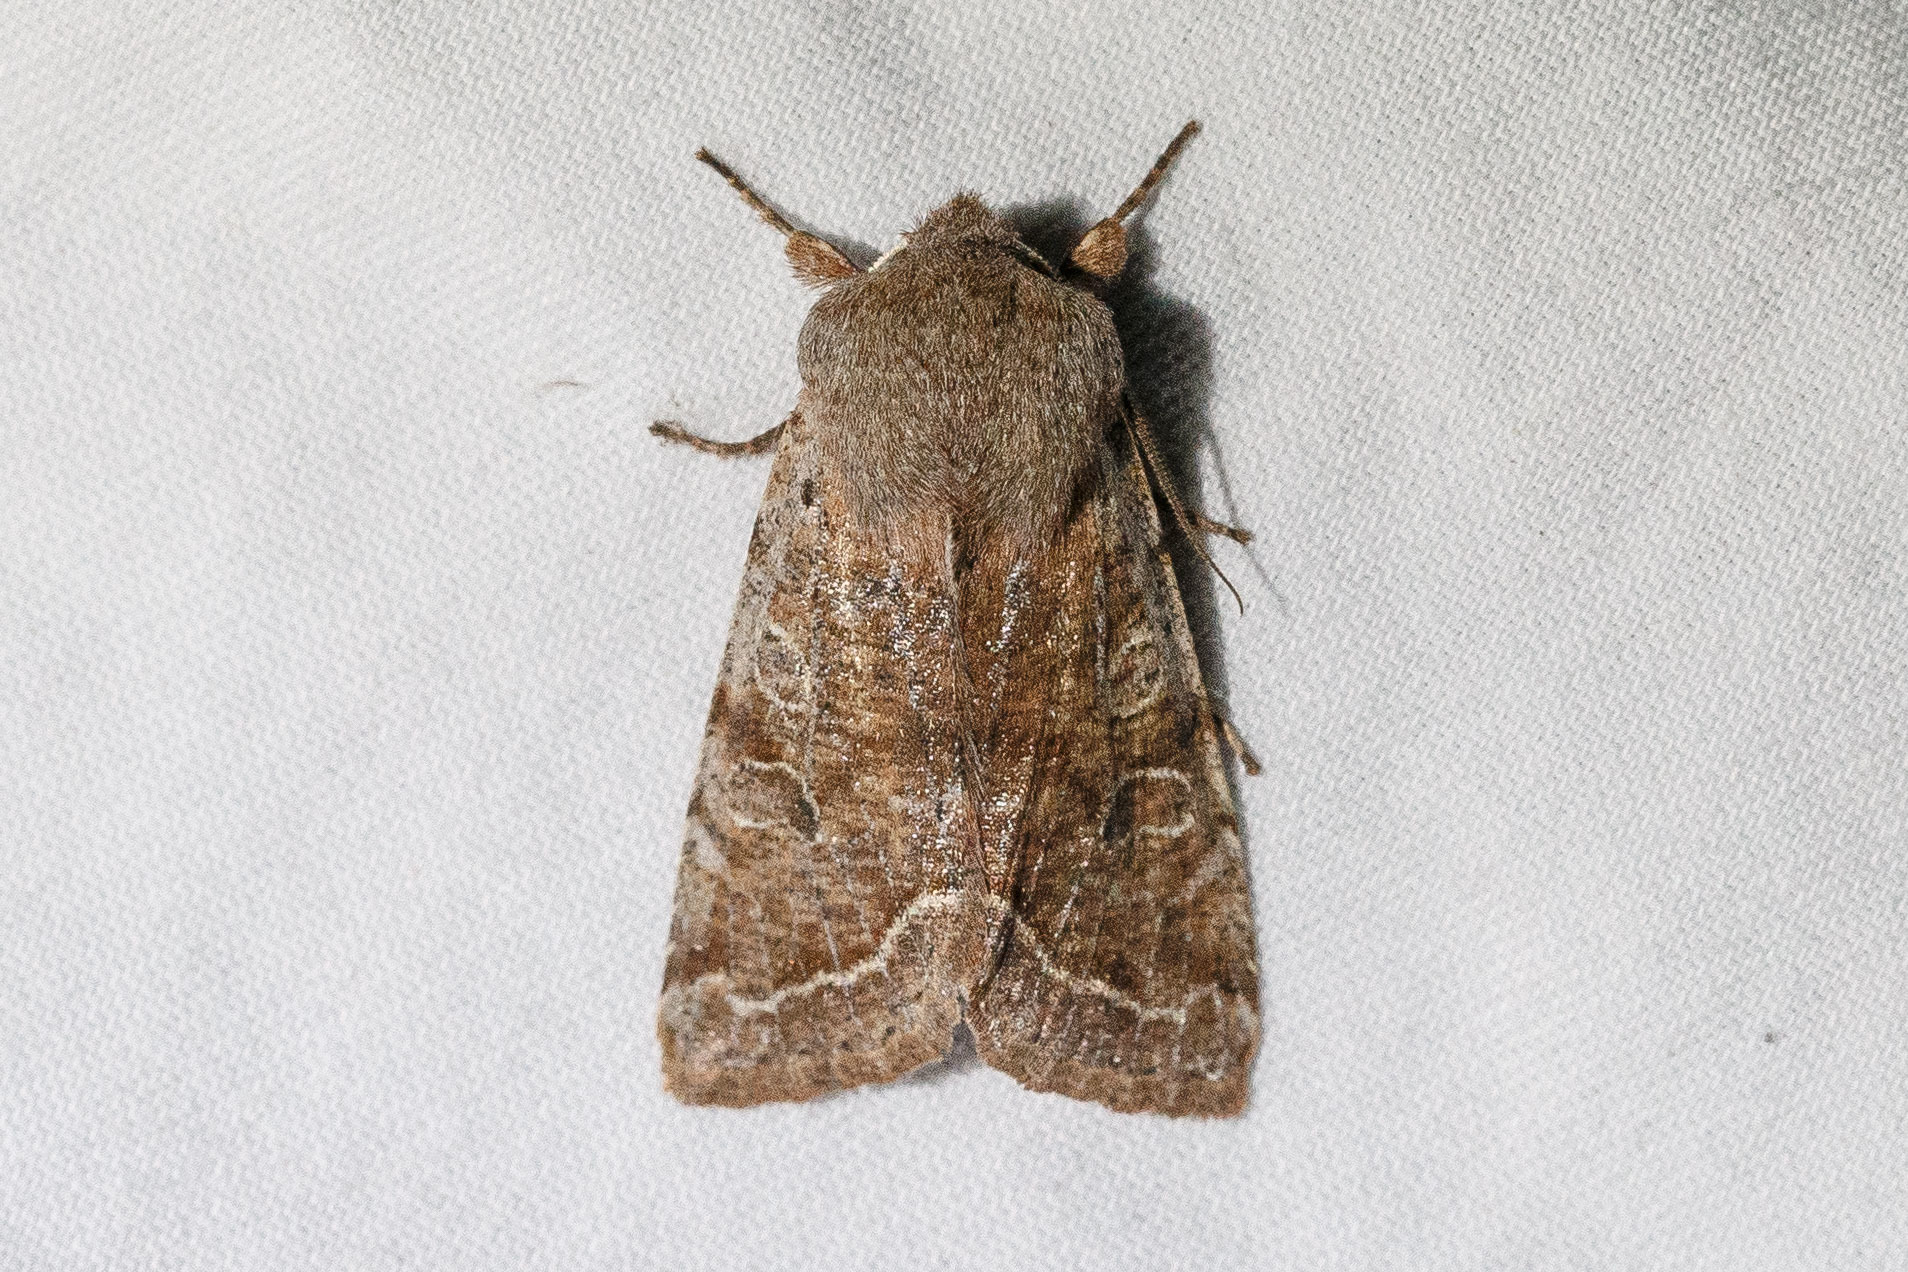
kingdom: Animalia
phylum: Arthropoda
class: Insecta
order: Lepidoptera
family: Noctuidae
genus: Orthosia
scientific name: Orthosia hibisci
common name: Green fruitworm
